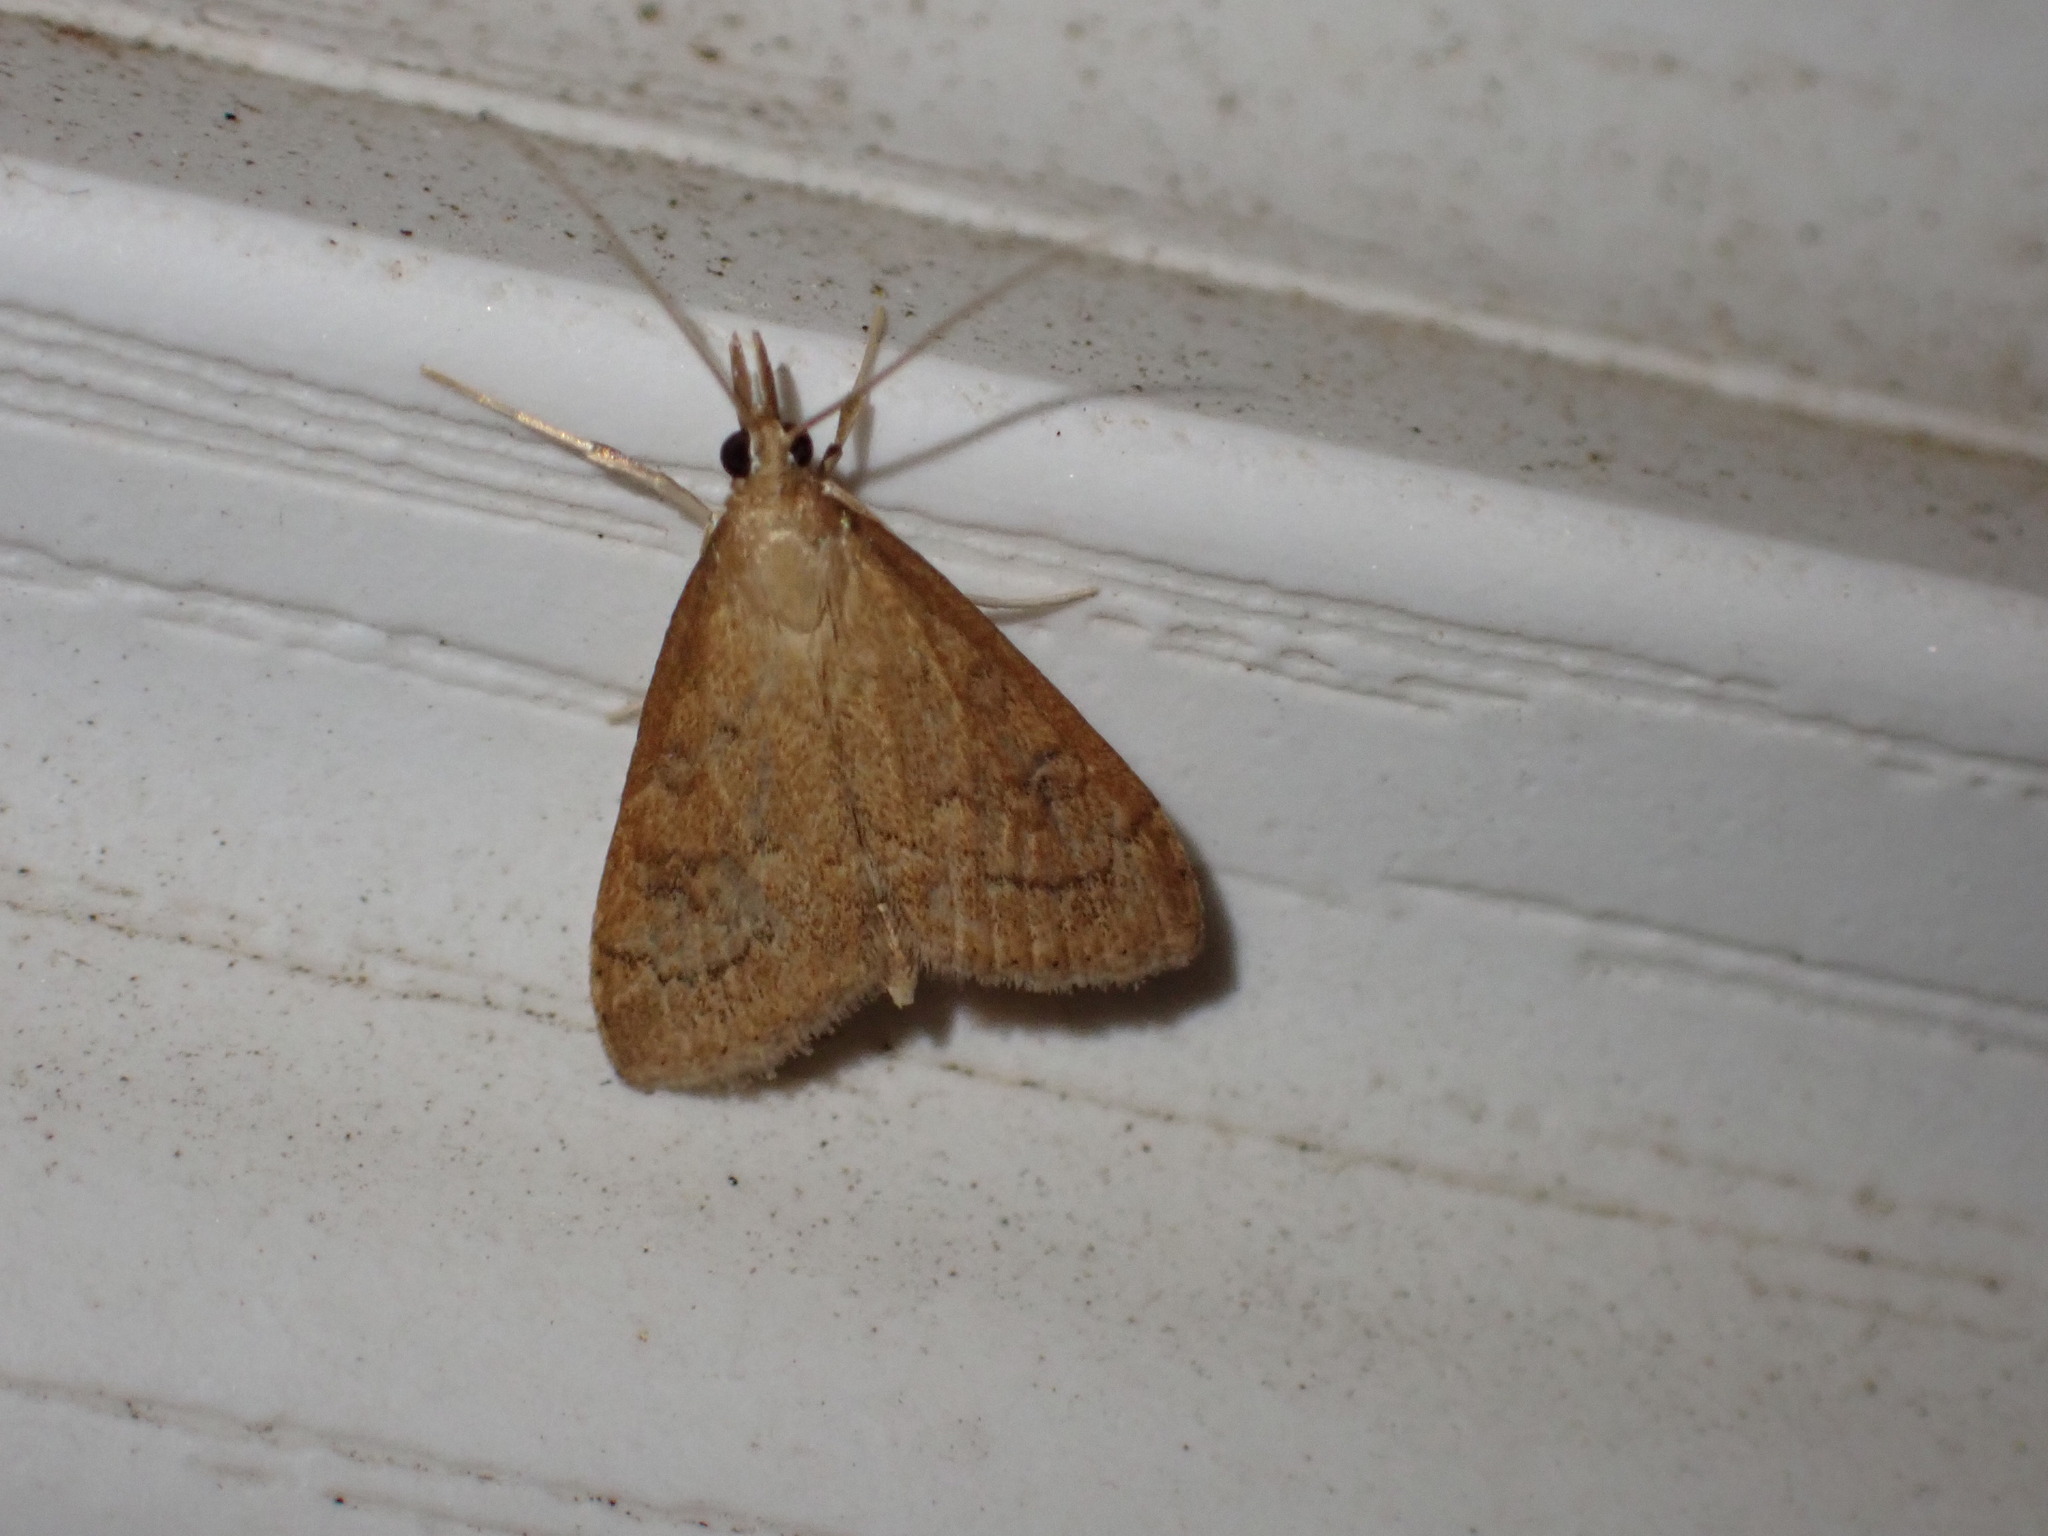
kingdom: Animalia
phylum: Arthropoda
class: Insecta
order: Lepidoptera
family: Crambidae
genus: Udea
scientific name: Udea rubigalis
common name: Celery leaftier moth
